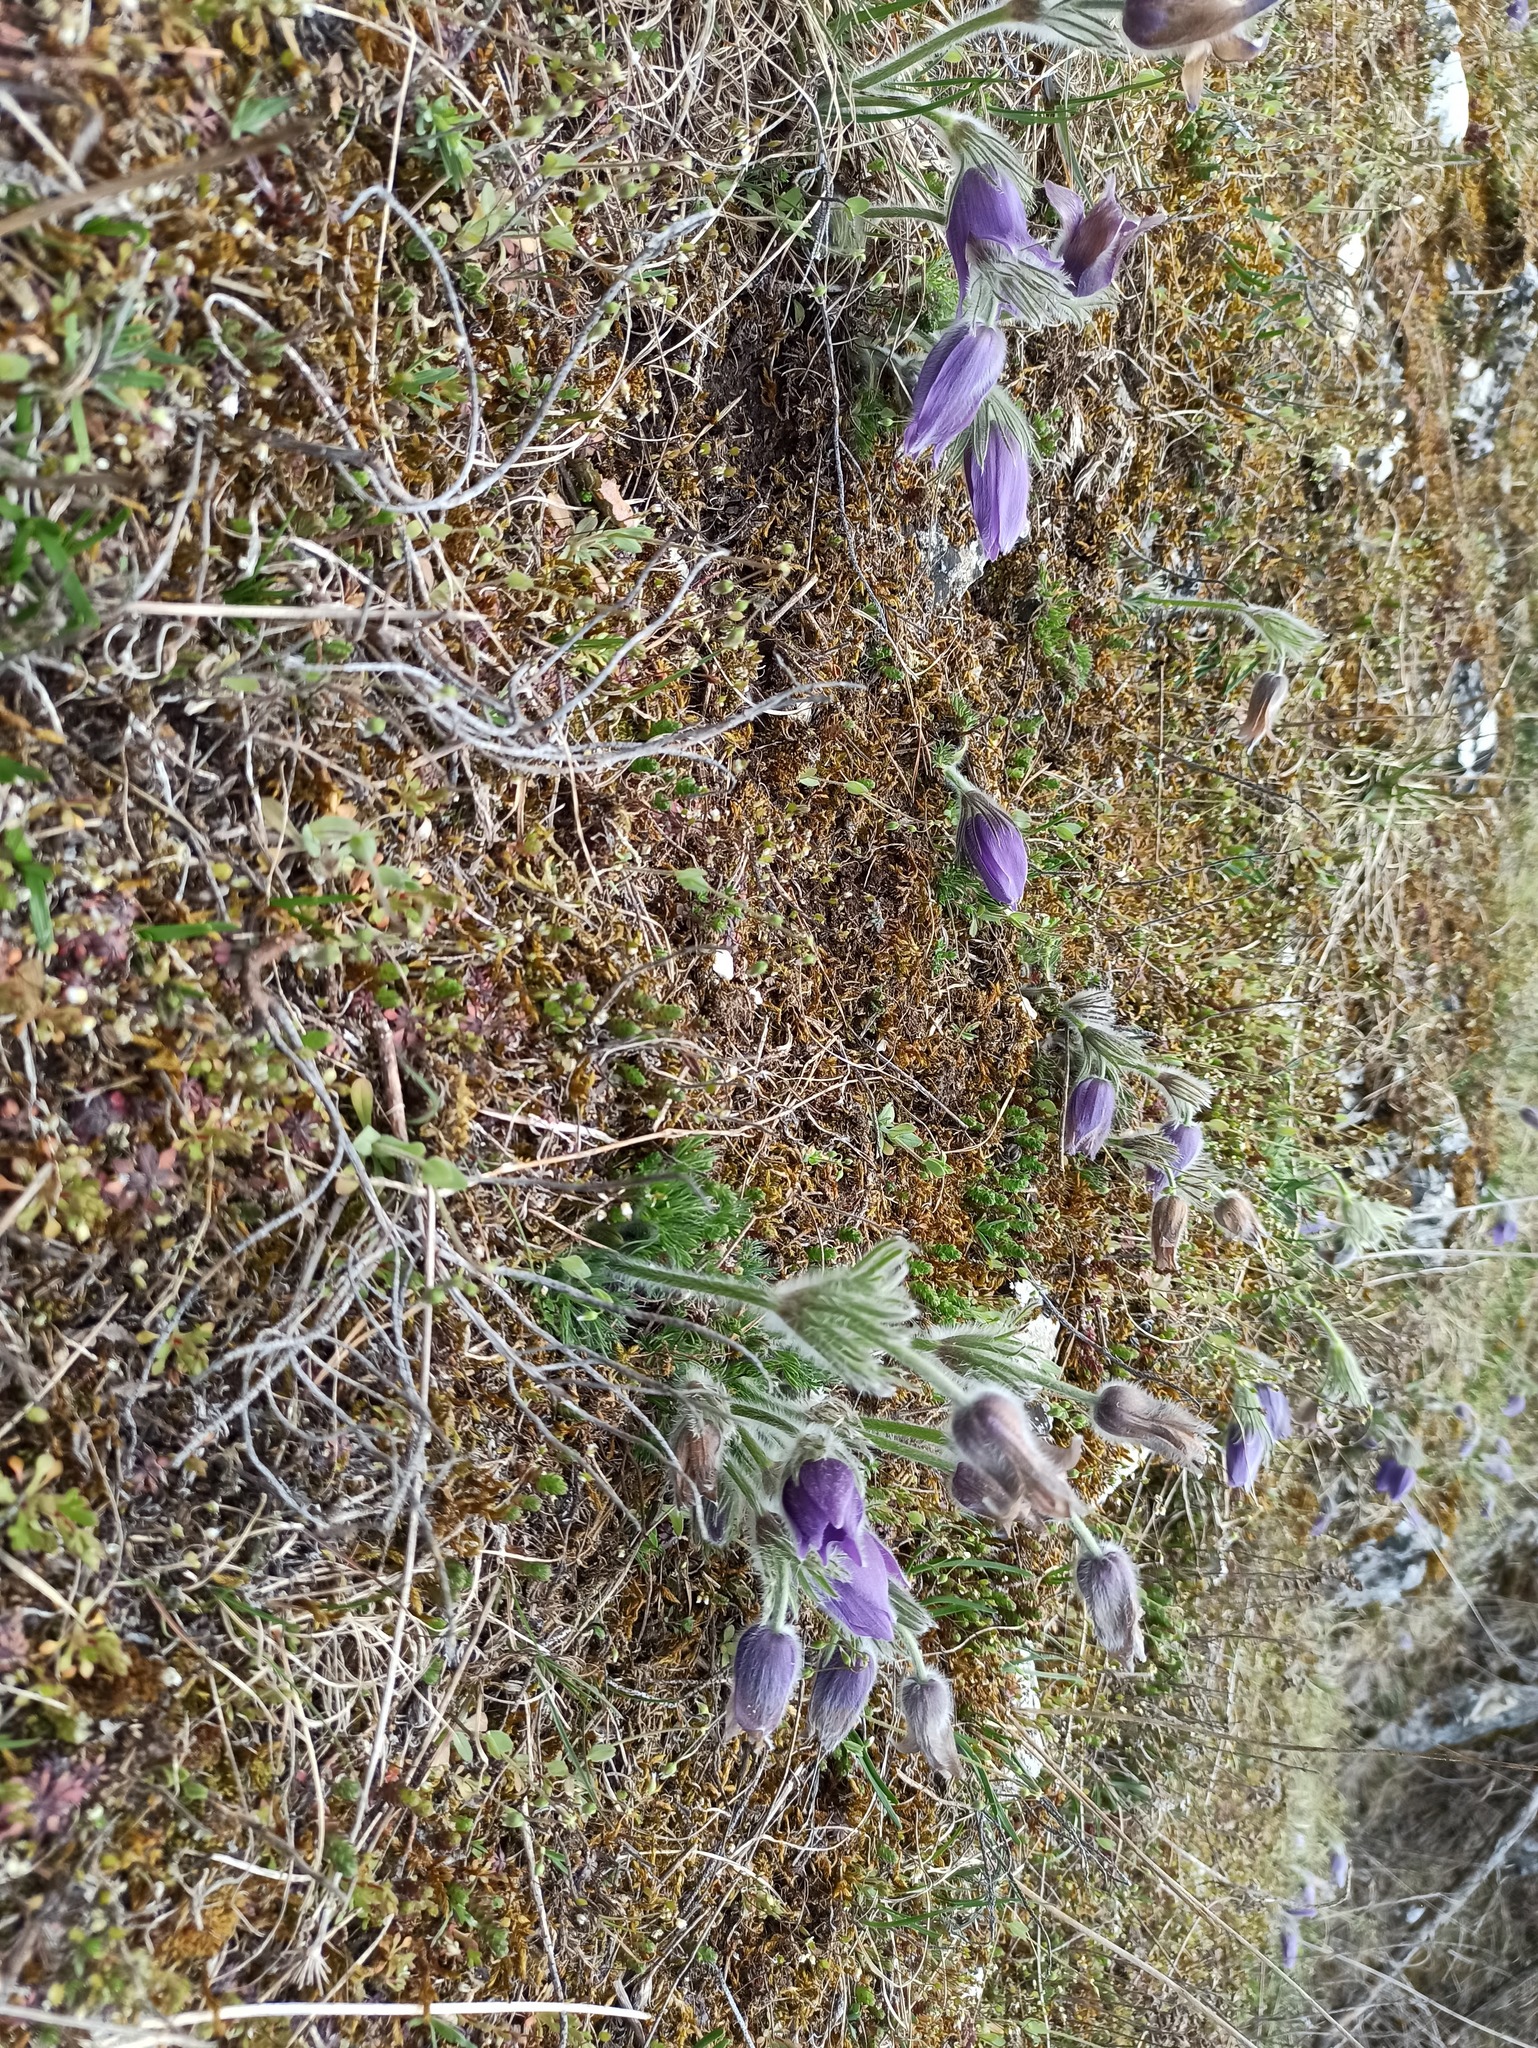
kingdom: Plantae
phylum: Tracheophyta
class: Magnoliopsida
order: Ranunculales
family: Ranunculaceae
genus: Pulsatilla
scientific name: Pulsatilla vulgaris
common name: Pasqueflower
